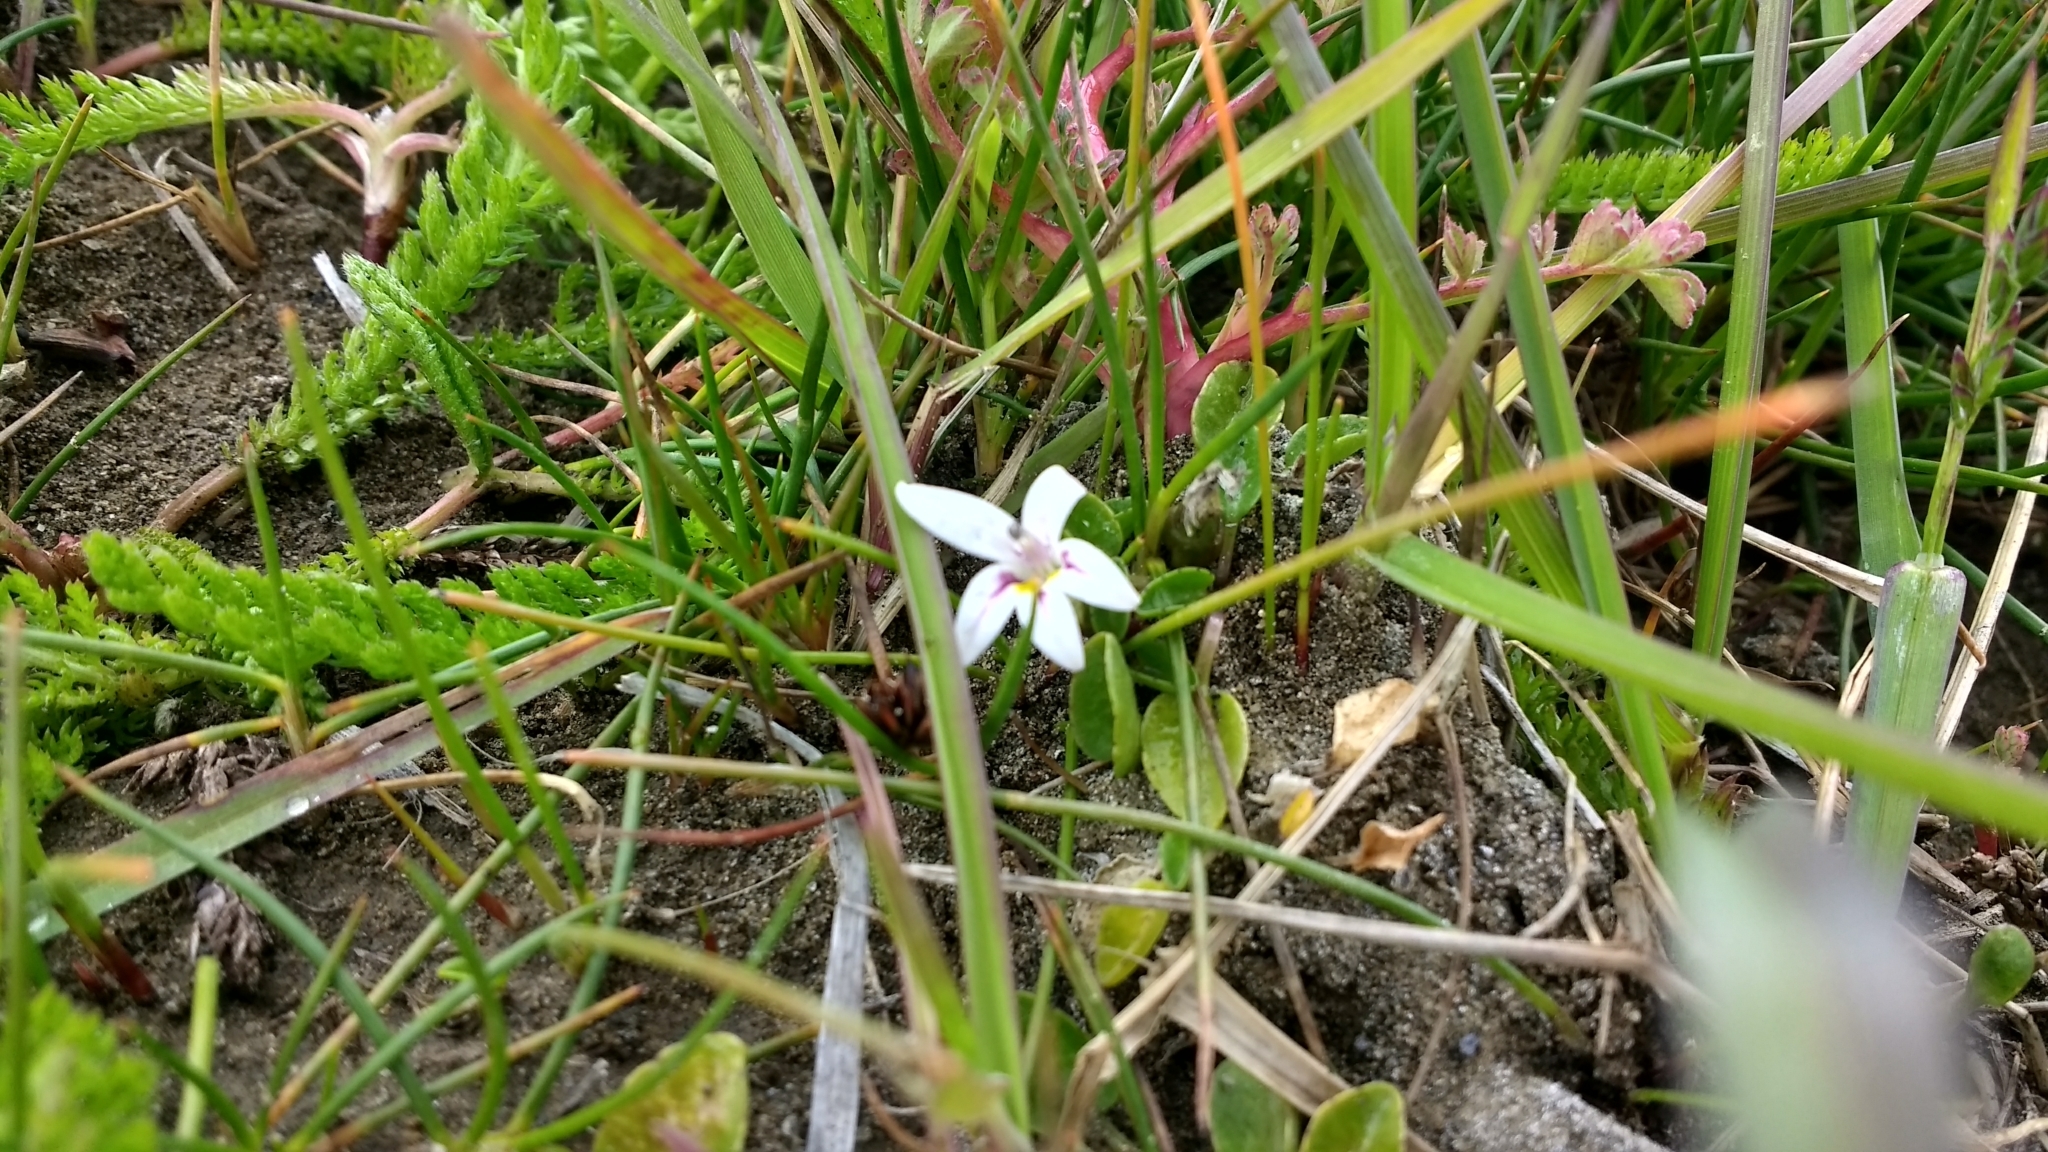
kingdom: Plantae
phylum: Tracheophyta
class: Magnoliopsida
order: Asterales
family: Campanulaceae
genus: Lobelia
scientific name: Lobelia oligophylla
